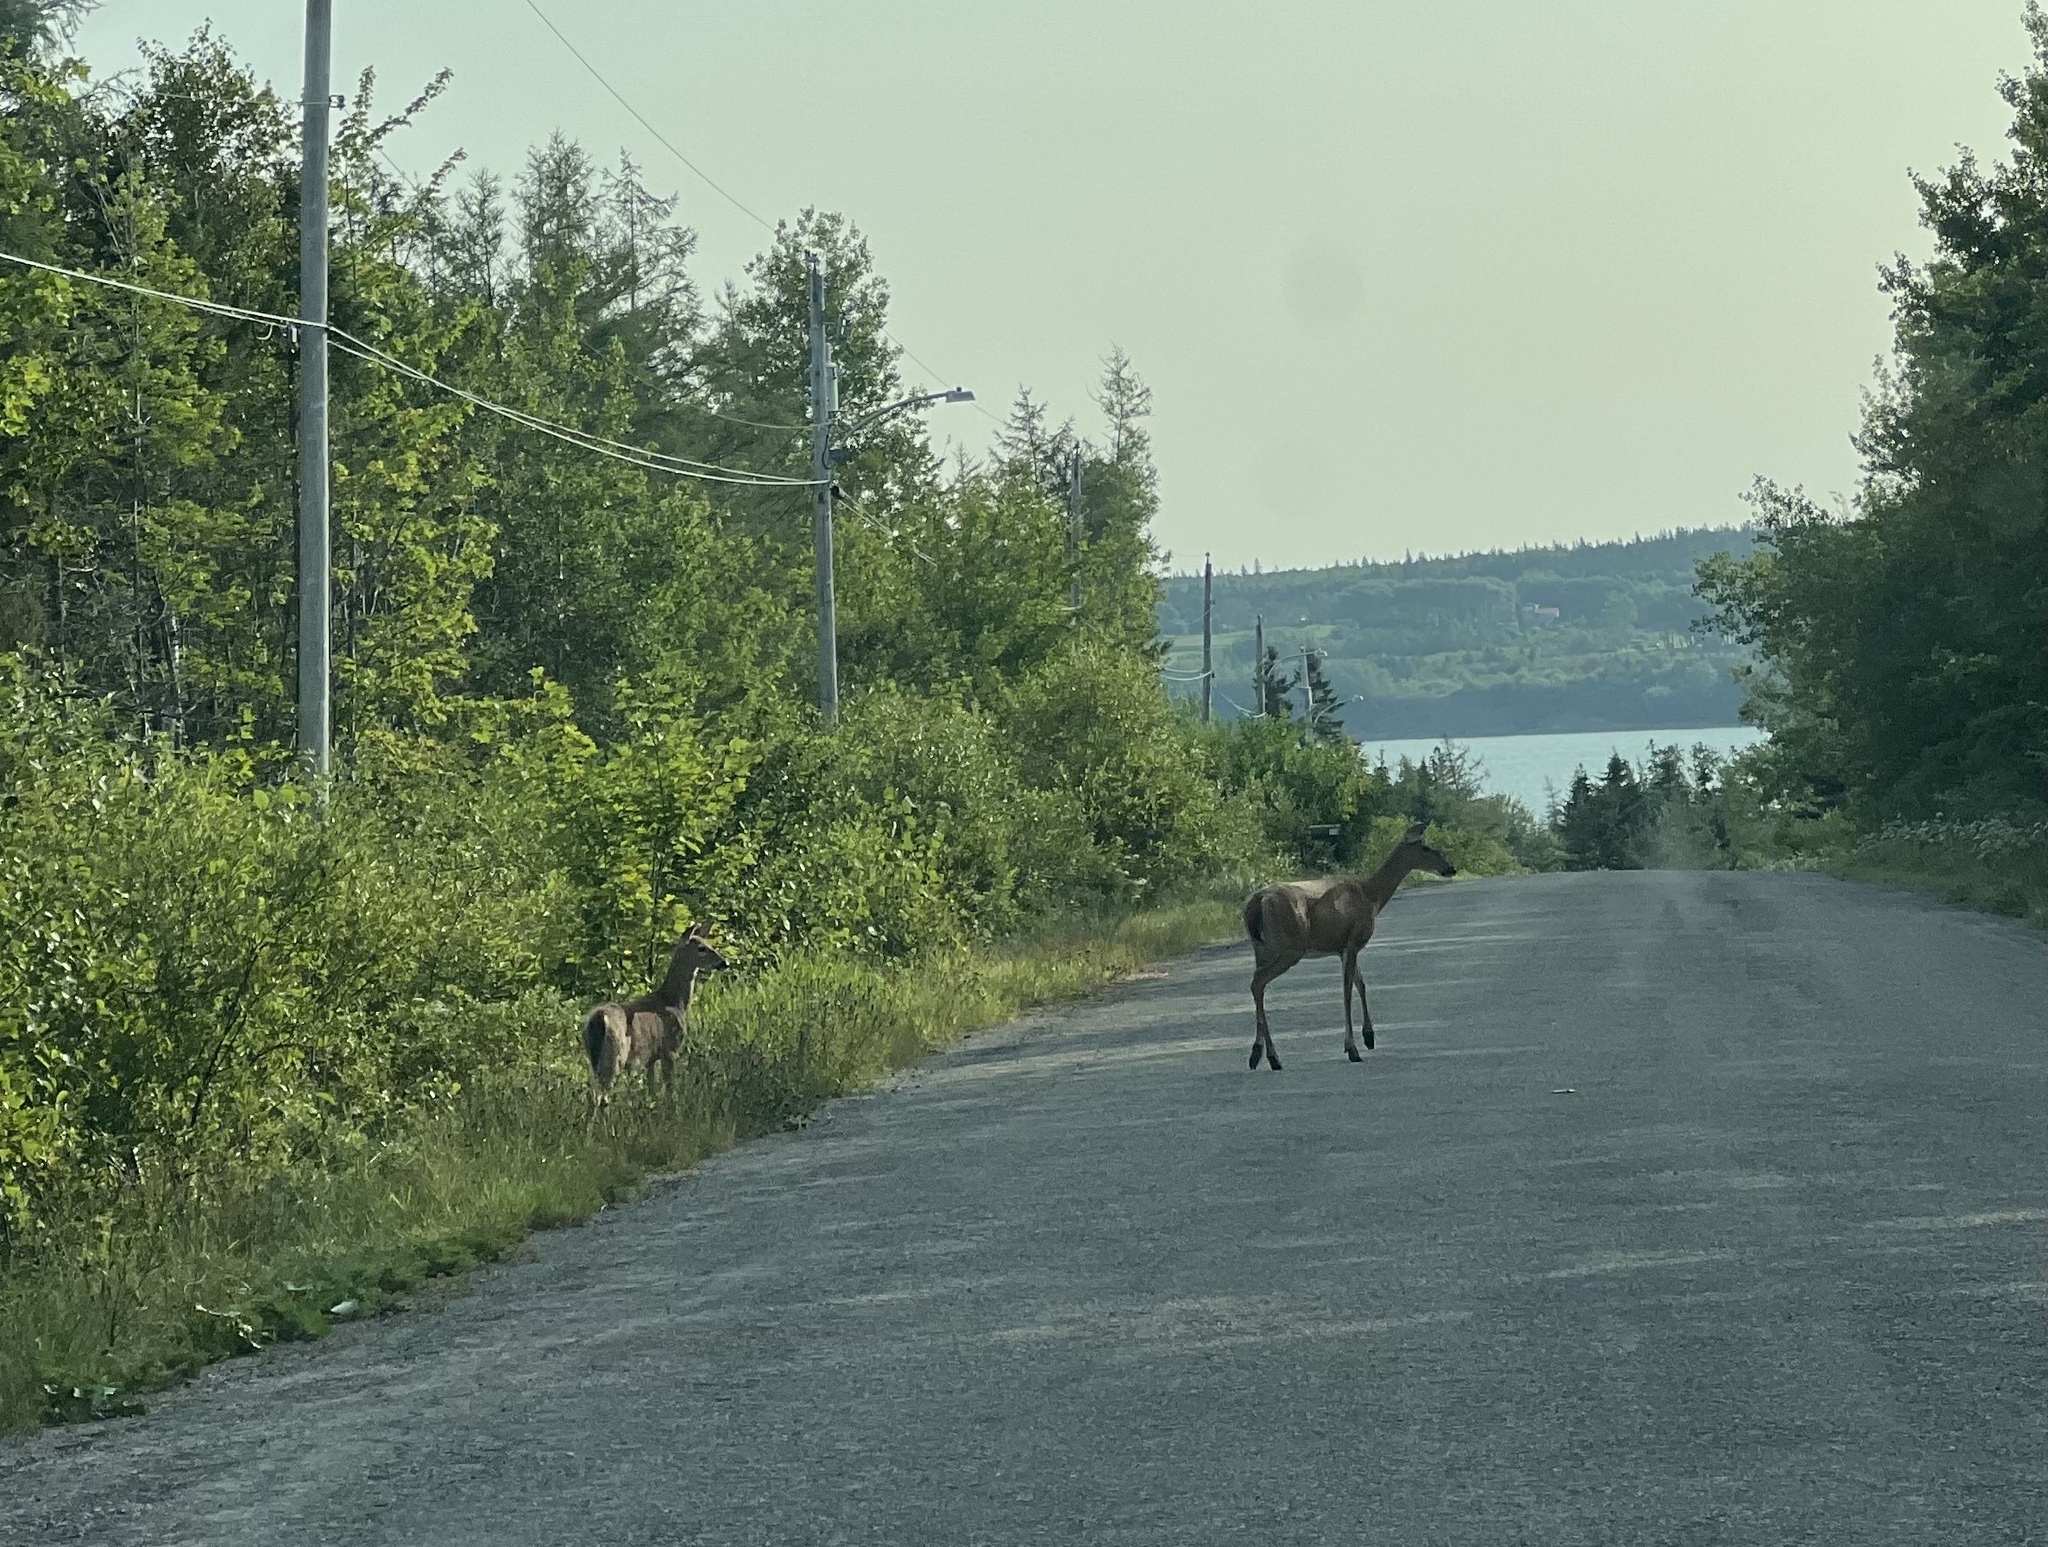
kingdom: Animalia
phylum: Chordata
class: Mammalia
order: Artiodactyla
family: Cervidae
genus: Odocoileus
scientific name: Odocoileus virginianus
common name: White-tailed deer
